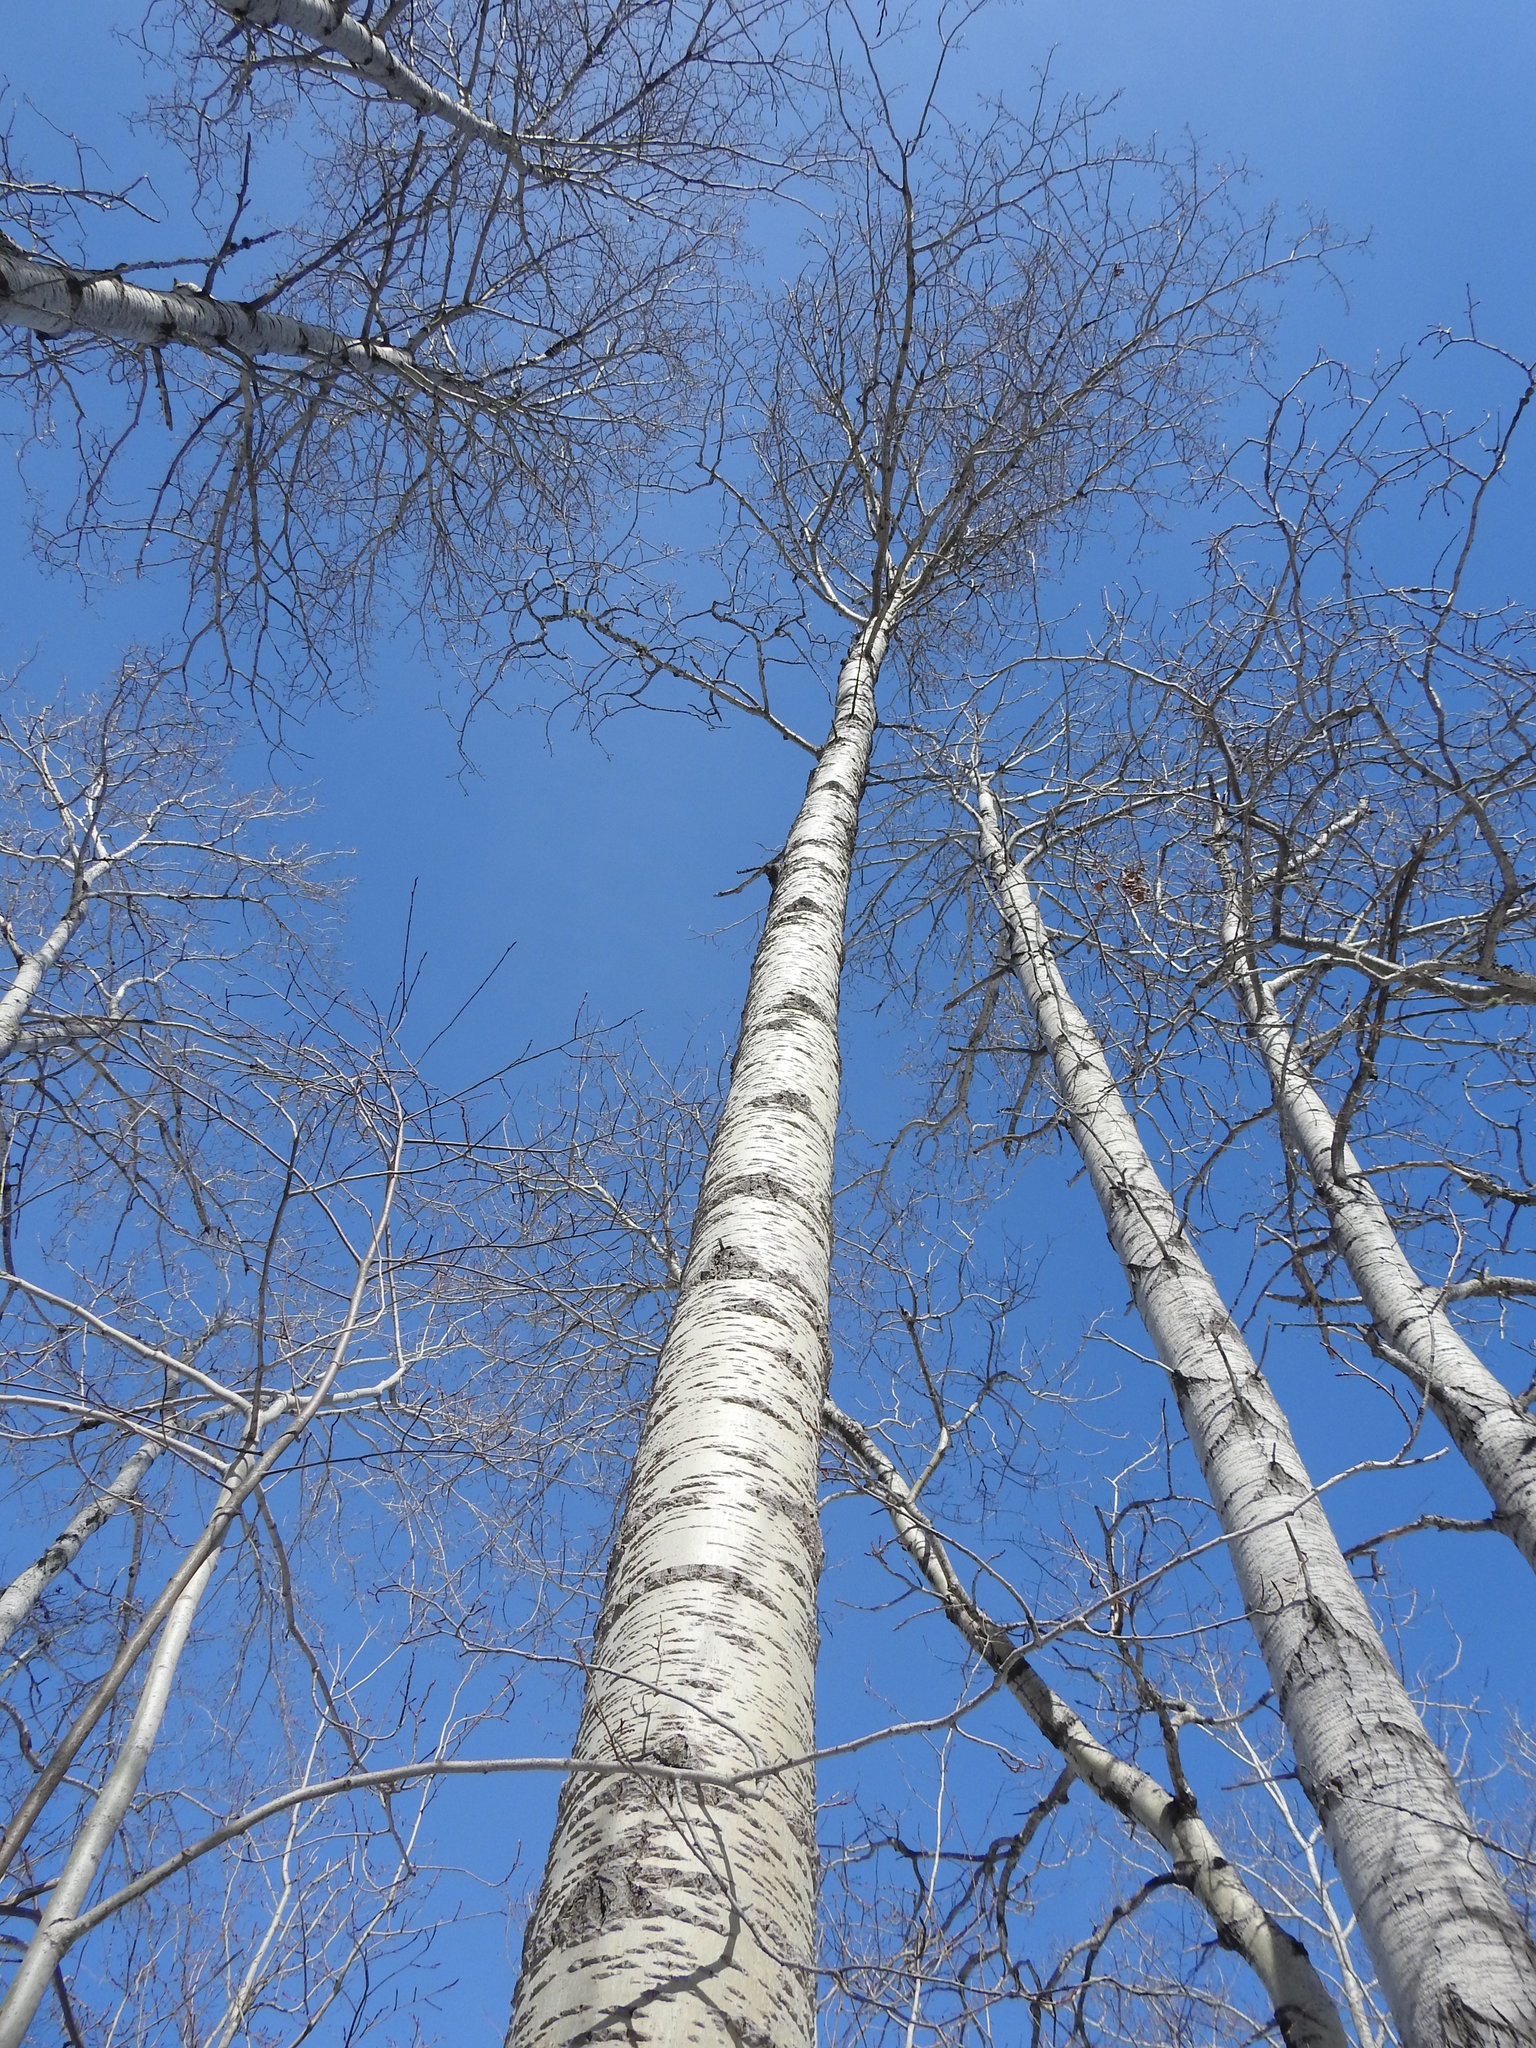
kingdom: Plantae
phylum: Tracheophyta
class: Magnoliopsida
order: Malpighiales
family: Salicaceae
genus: Populus
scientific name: Populus tremuloides
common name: Quaking aspen
